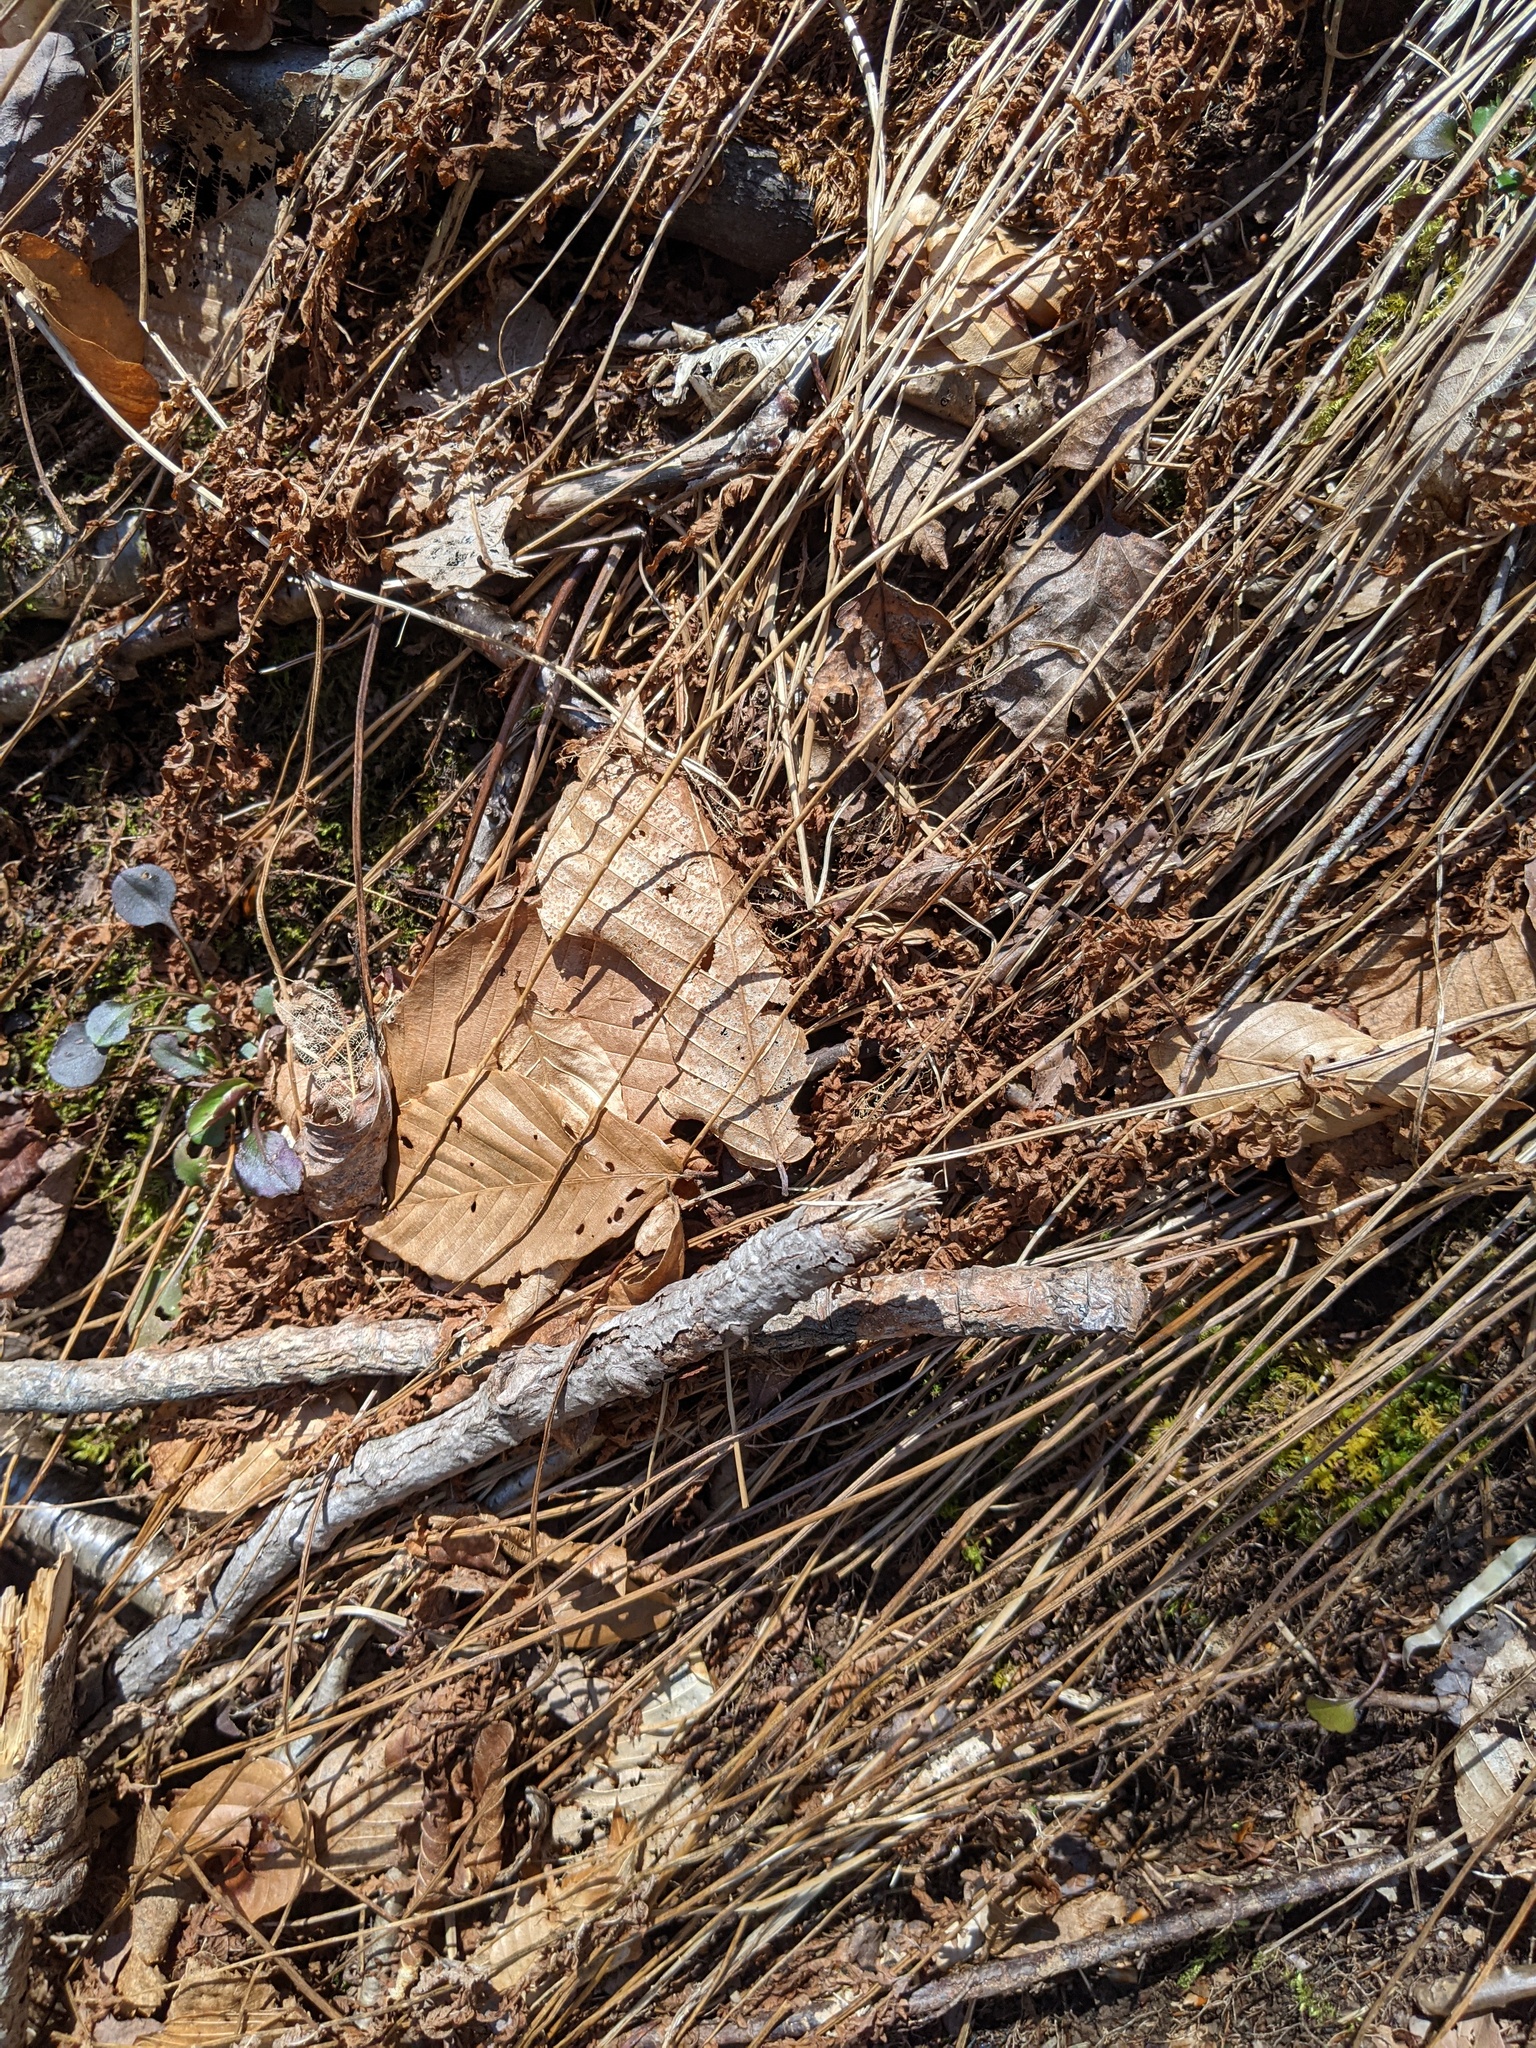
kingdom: Plantae
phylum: Tracheophyta
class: Magnoliopsida
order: Fagales
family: Fagaceae
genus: Fagus
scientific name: Fagus grandifolia
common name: American beech
